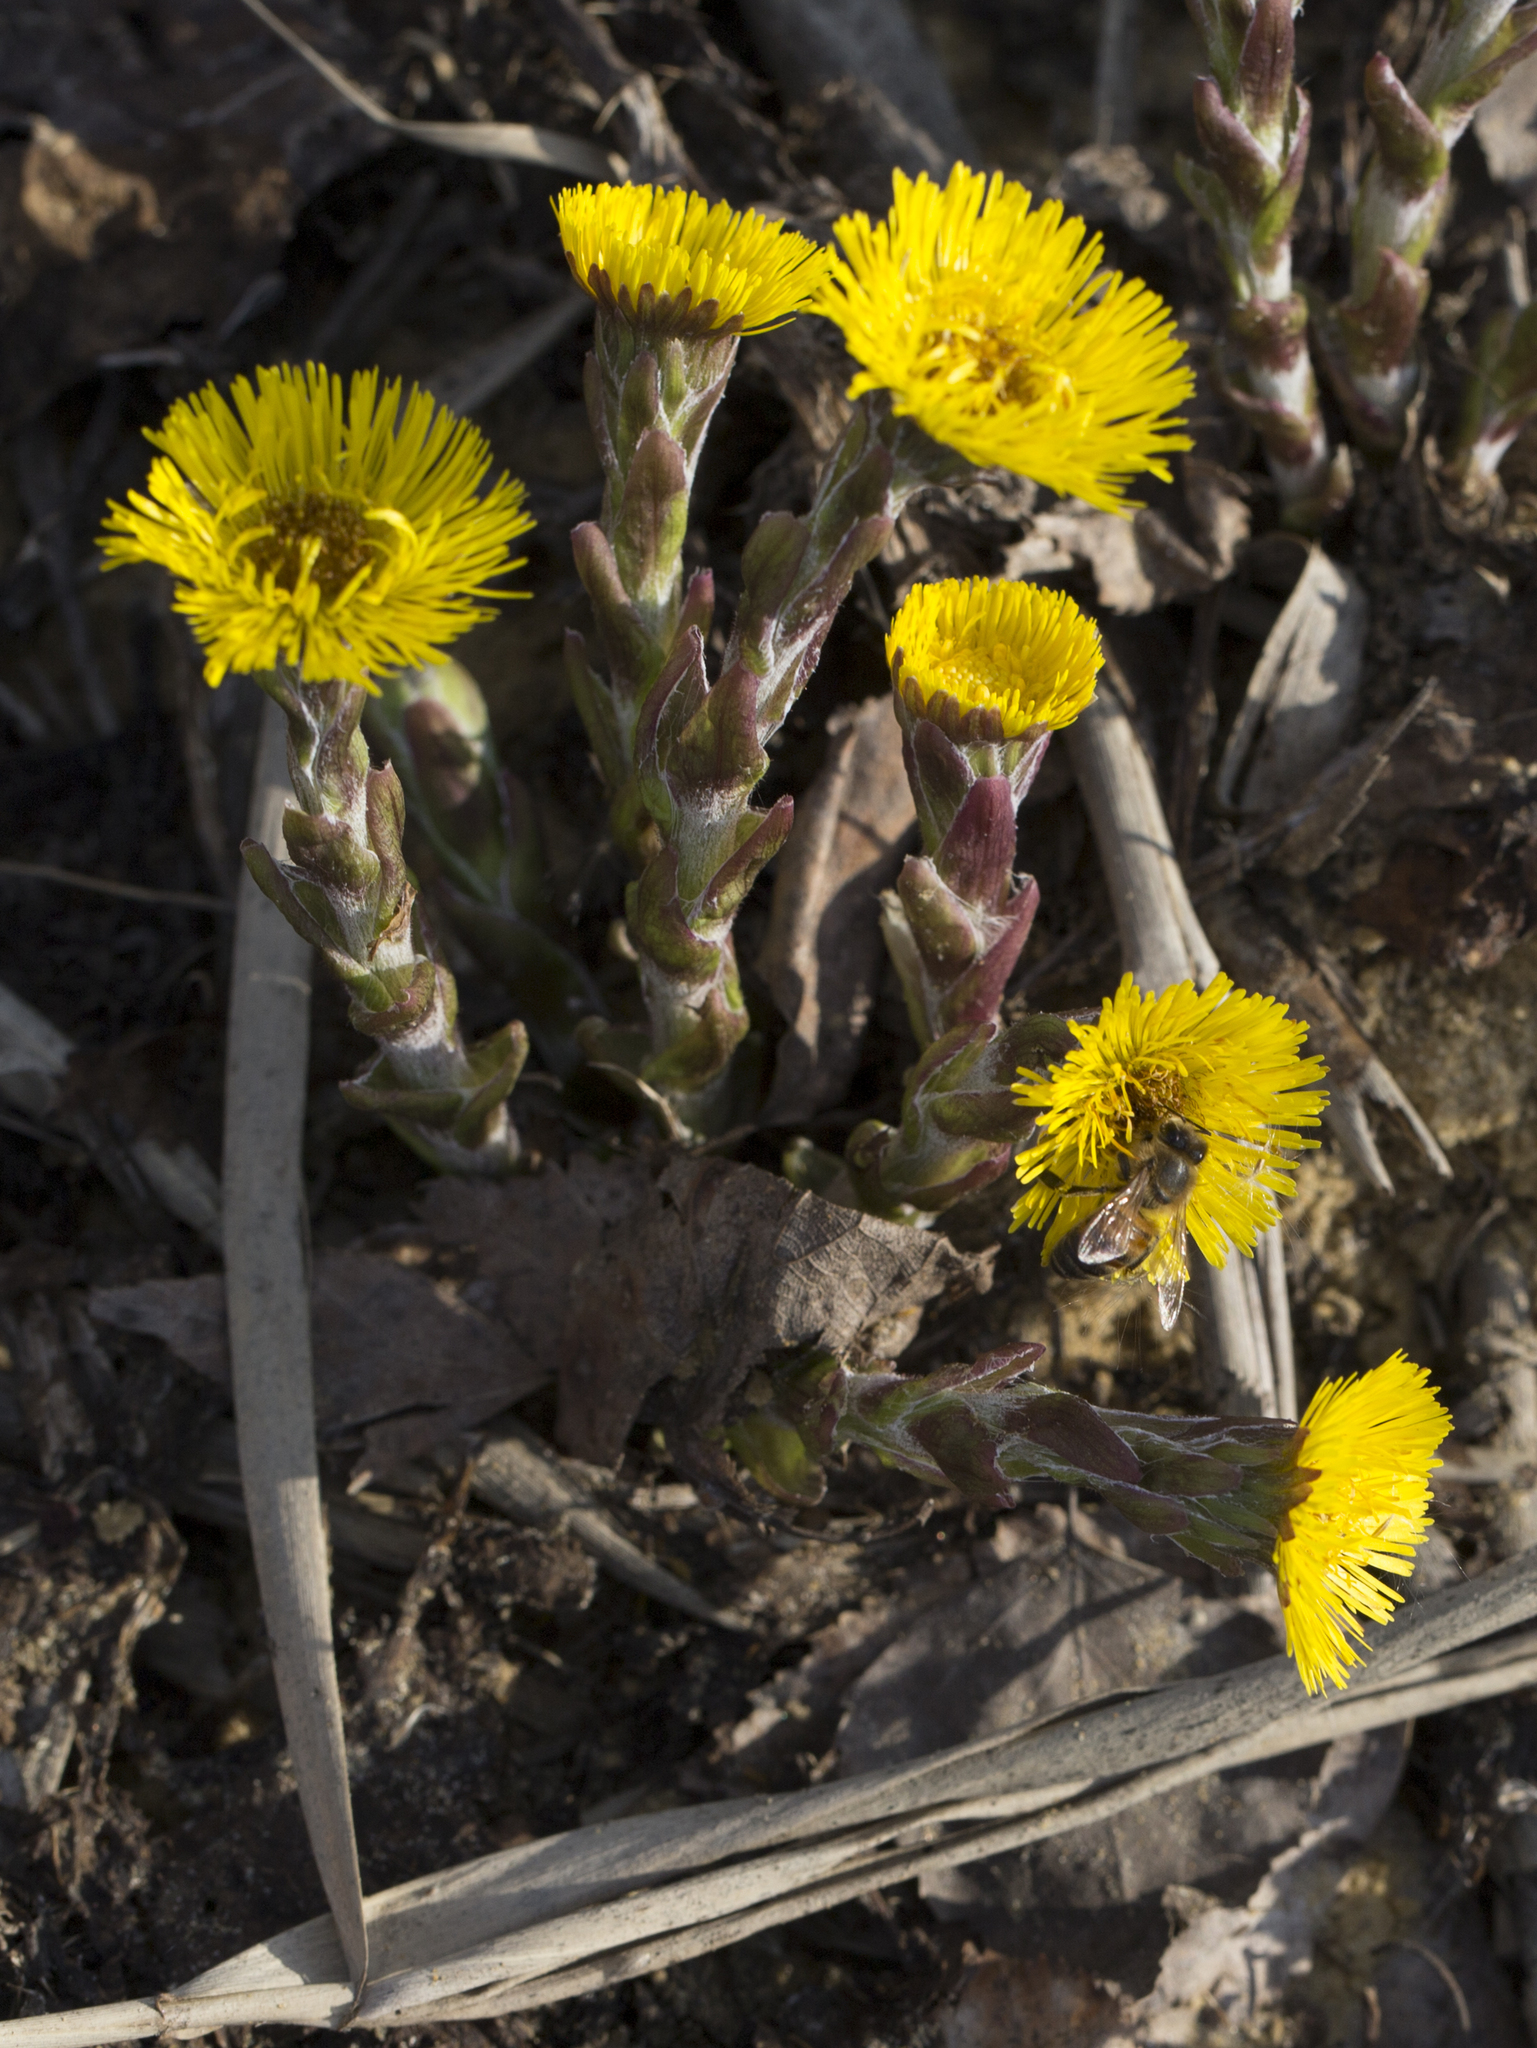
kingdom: Animalia
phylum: Arthropoda
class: Insecta
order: Hymenoptera
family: Apidae
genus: Apis
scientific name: Apis mellifera
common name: Honey bee
